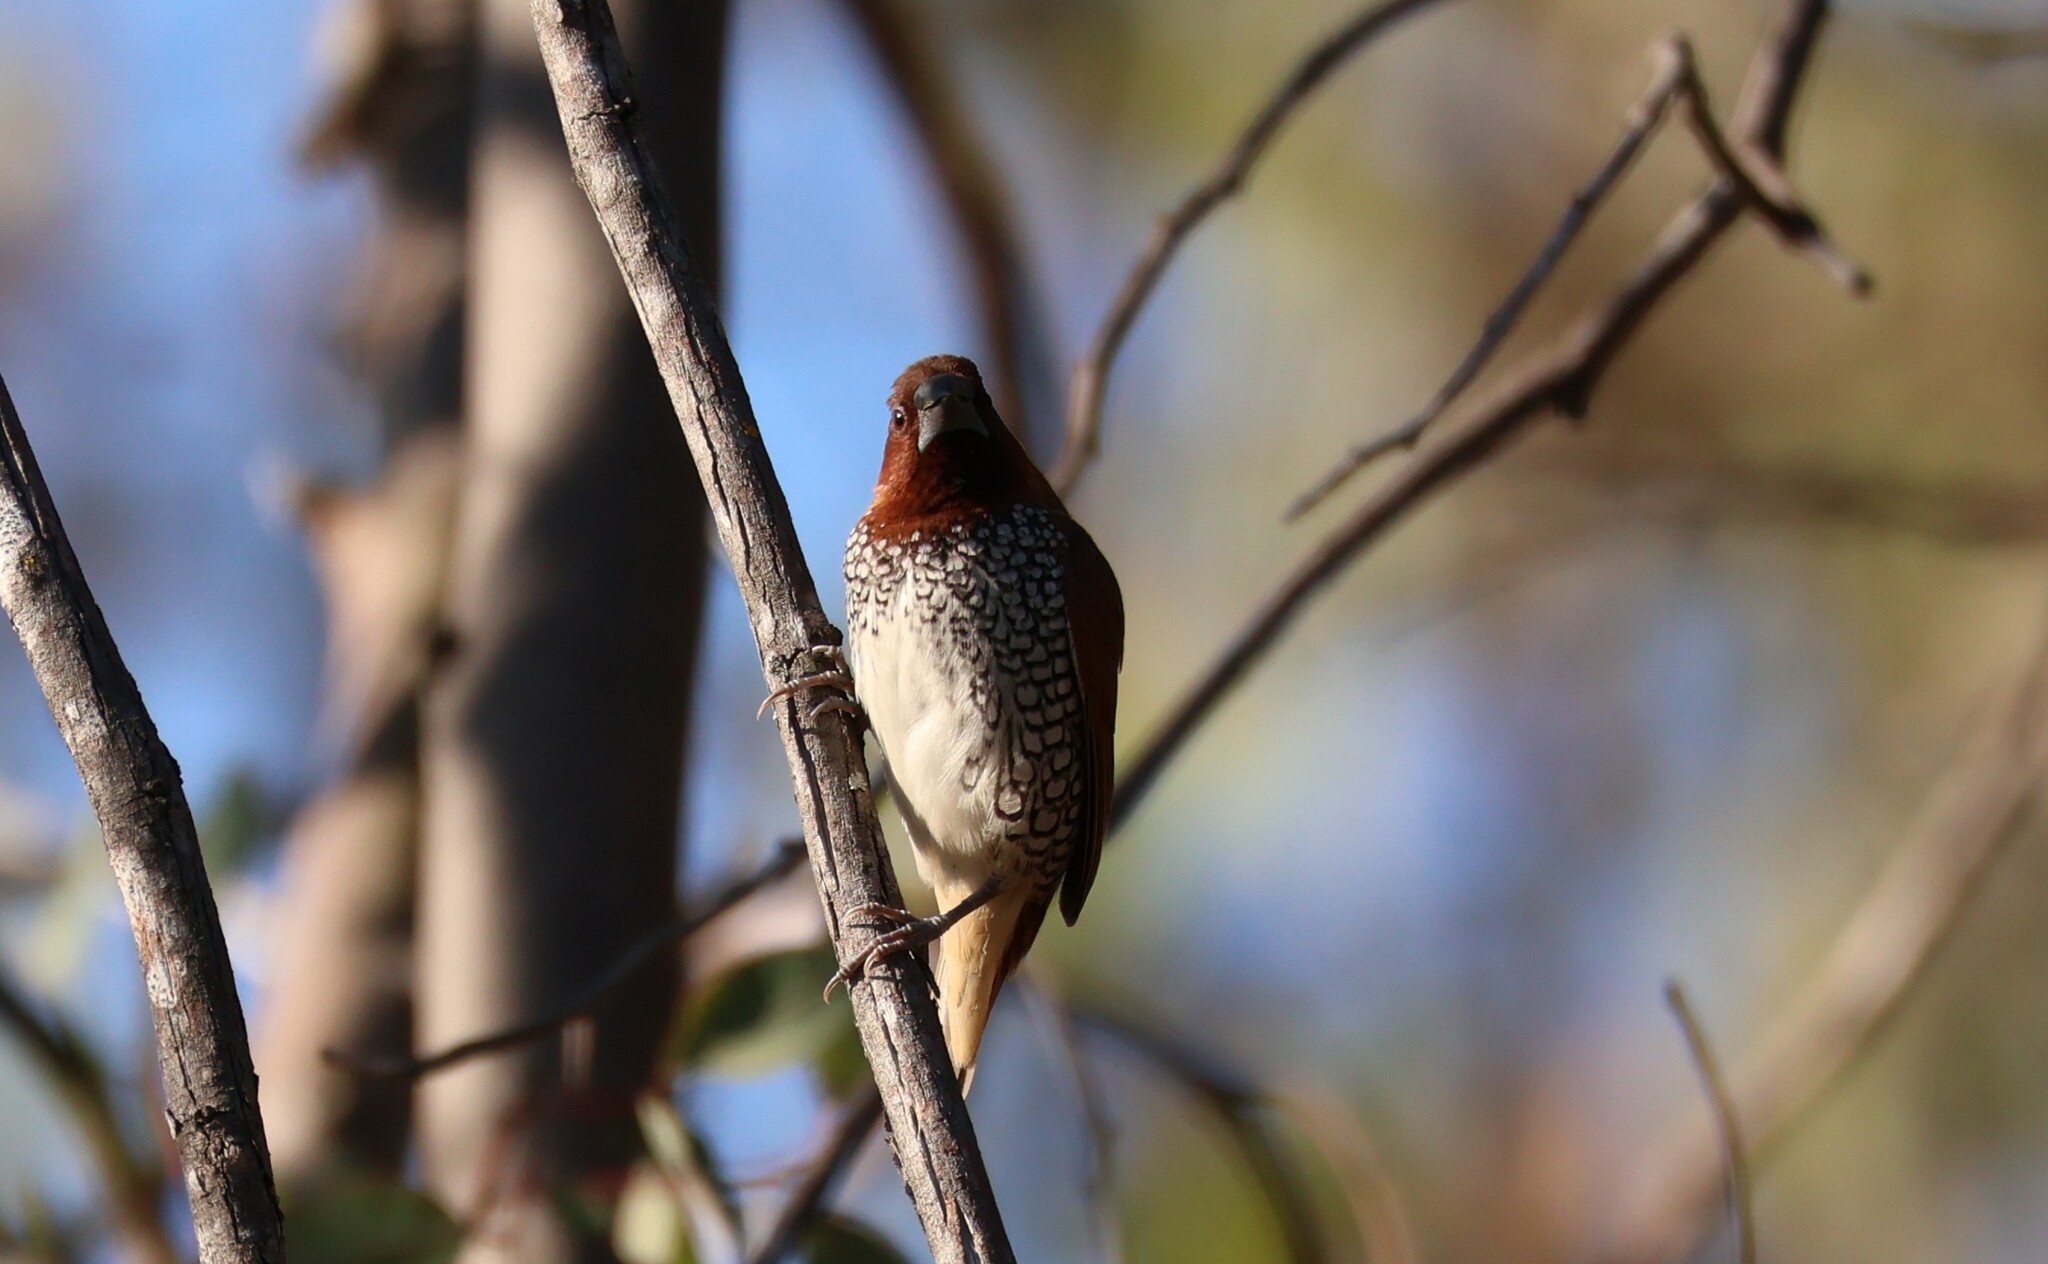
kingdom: Animalia
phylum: Chordata
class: Aves
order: Passeriformes
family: Estrildidae
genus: Lonchura
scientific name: Lonchura punctulata
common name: Scaly-breasted munia
